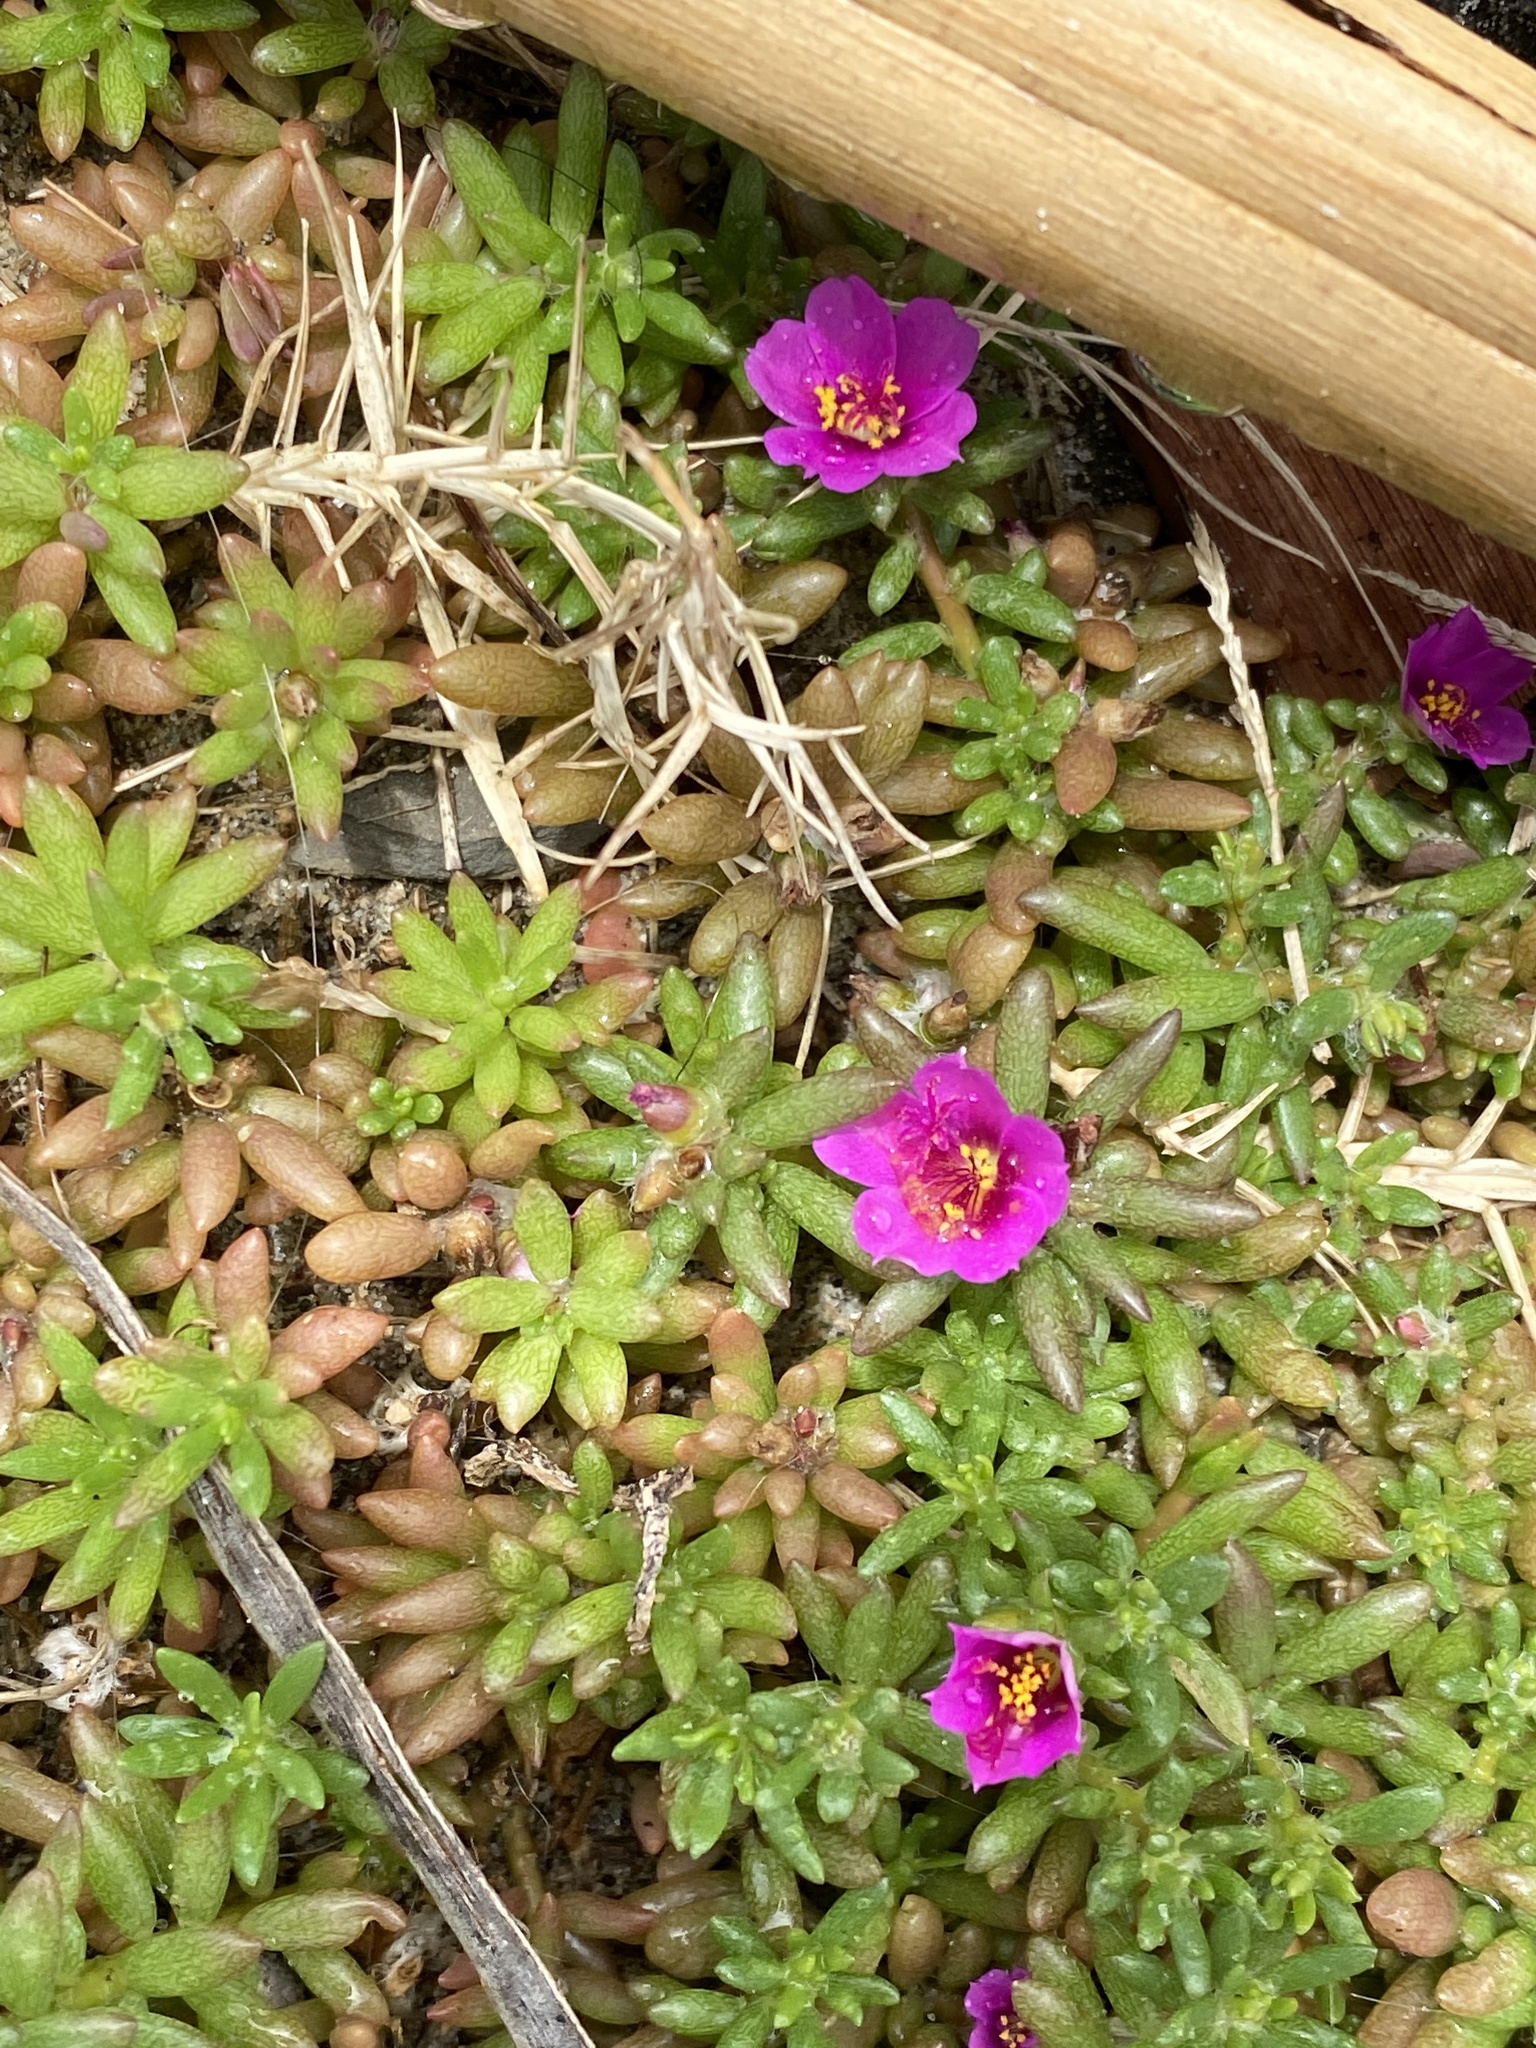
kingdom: Plantae
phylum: Tracheophyta
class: Magnoliopsida
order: Caryophyllales
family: Portulacaceae
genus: Portulaca
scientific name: Portulaca pilosa
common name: Kiss me quick
